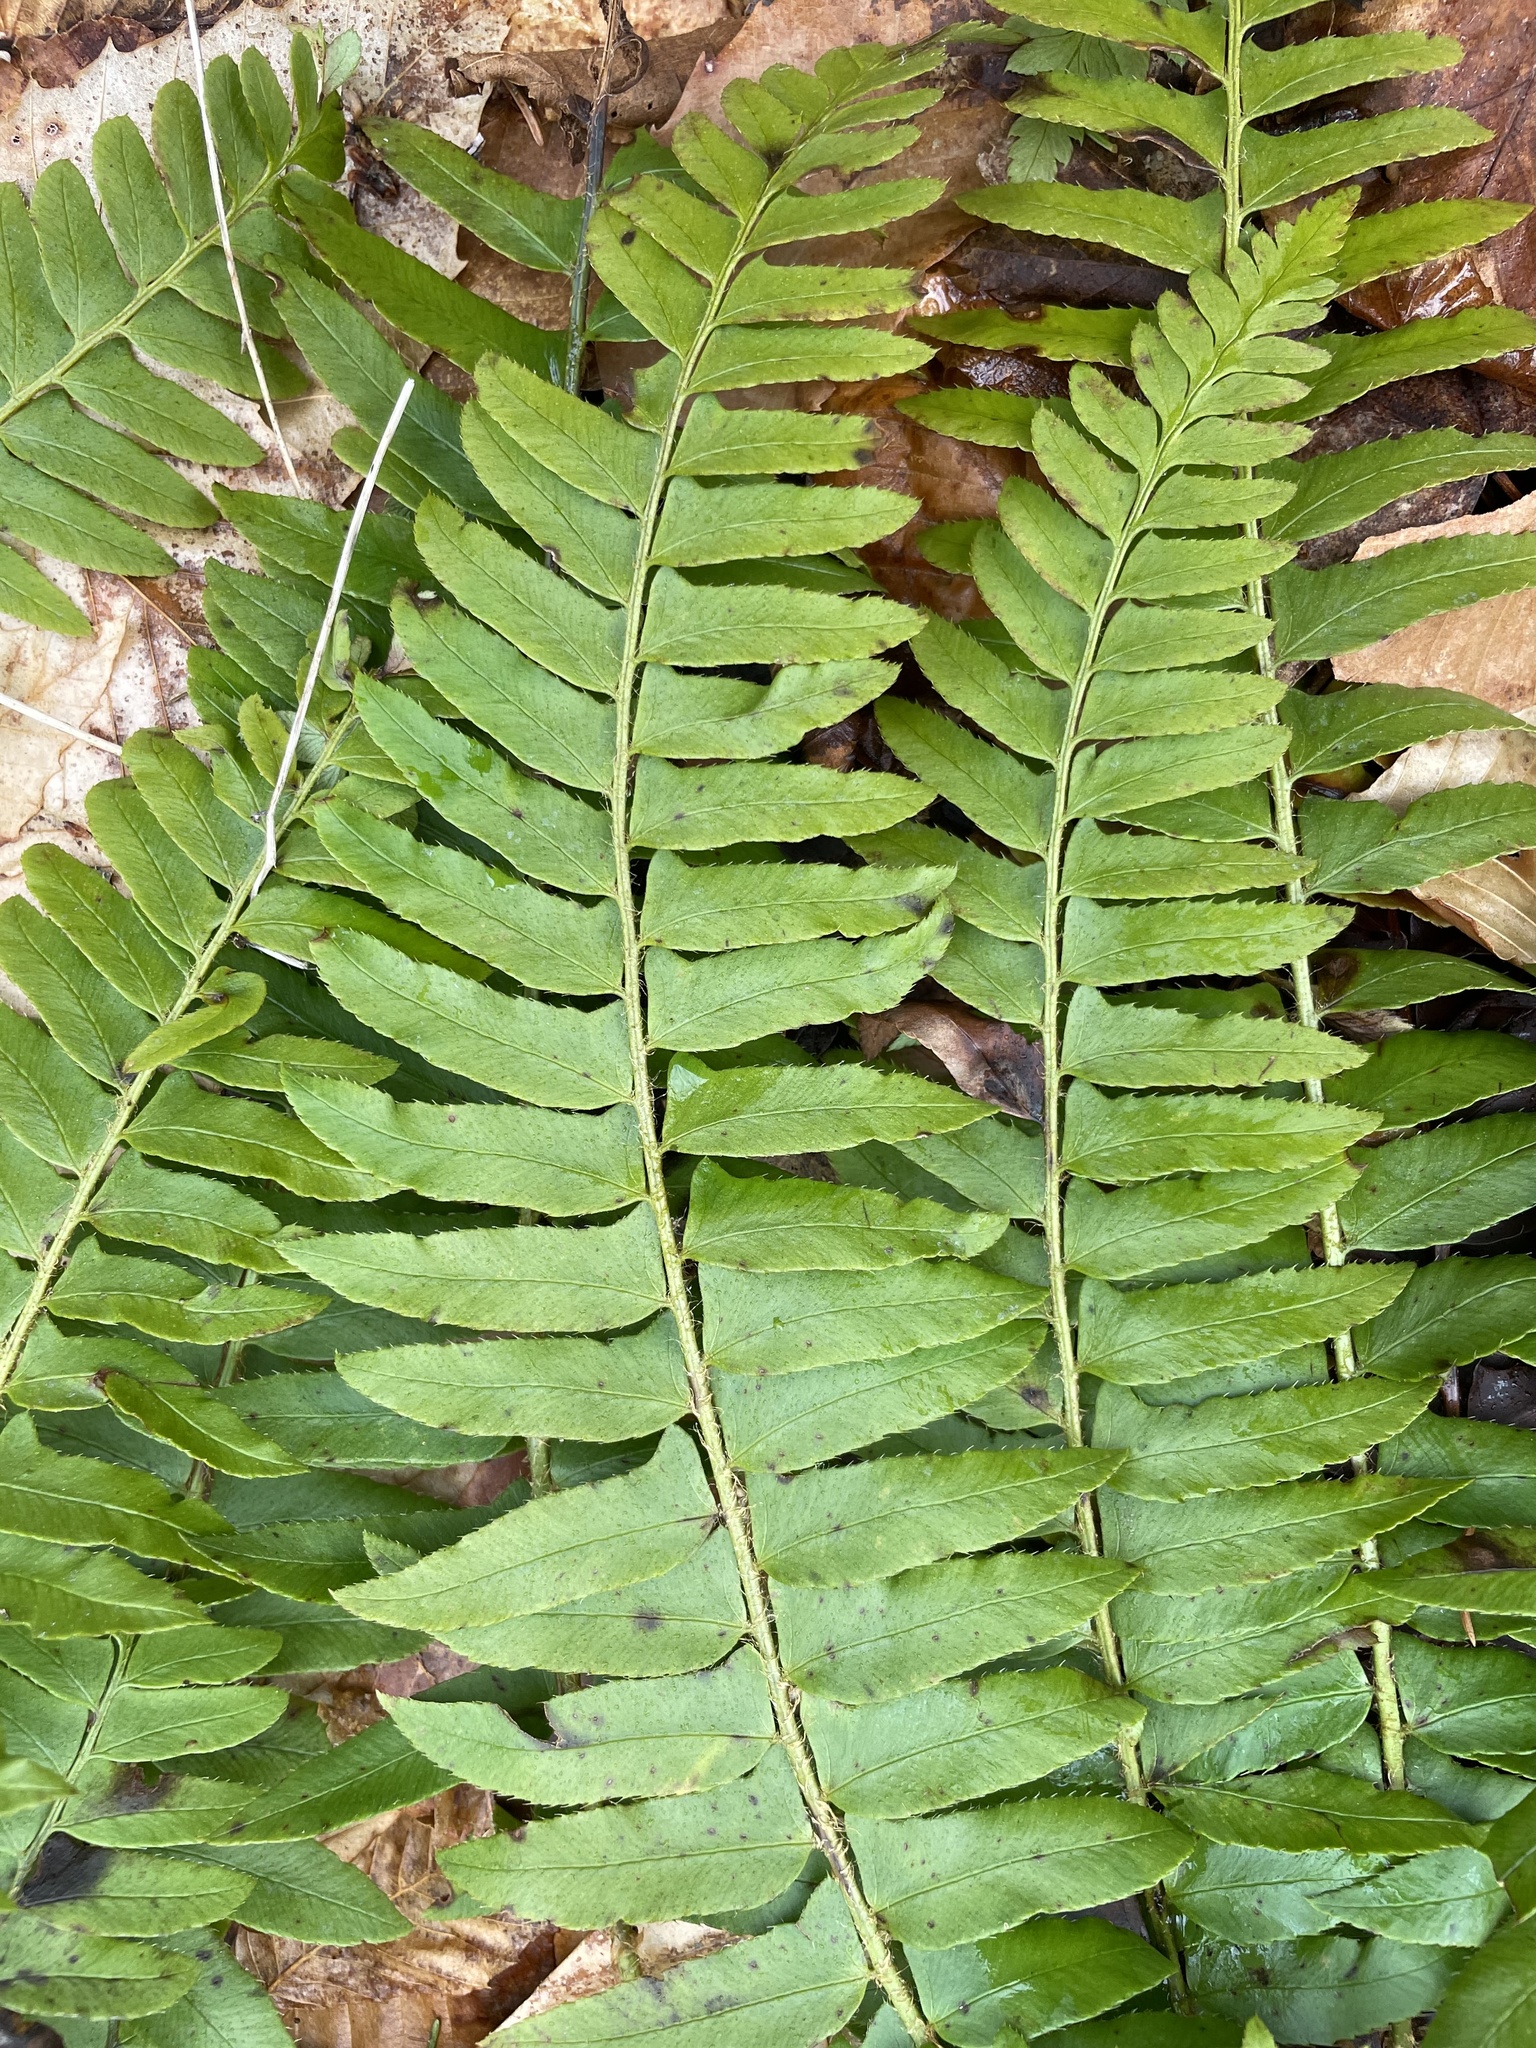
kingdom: Plantae
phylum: Tracheophyta
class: Polypodiopsida
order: Polypodiales
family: Dryopteridaceae
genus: Polystichum
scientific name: Polystichum acrostichoides
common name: Christmas fern
